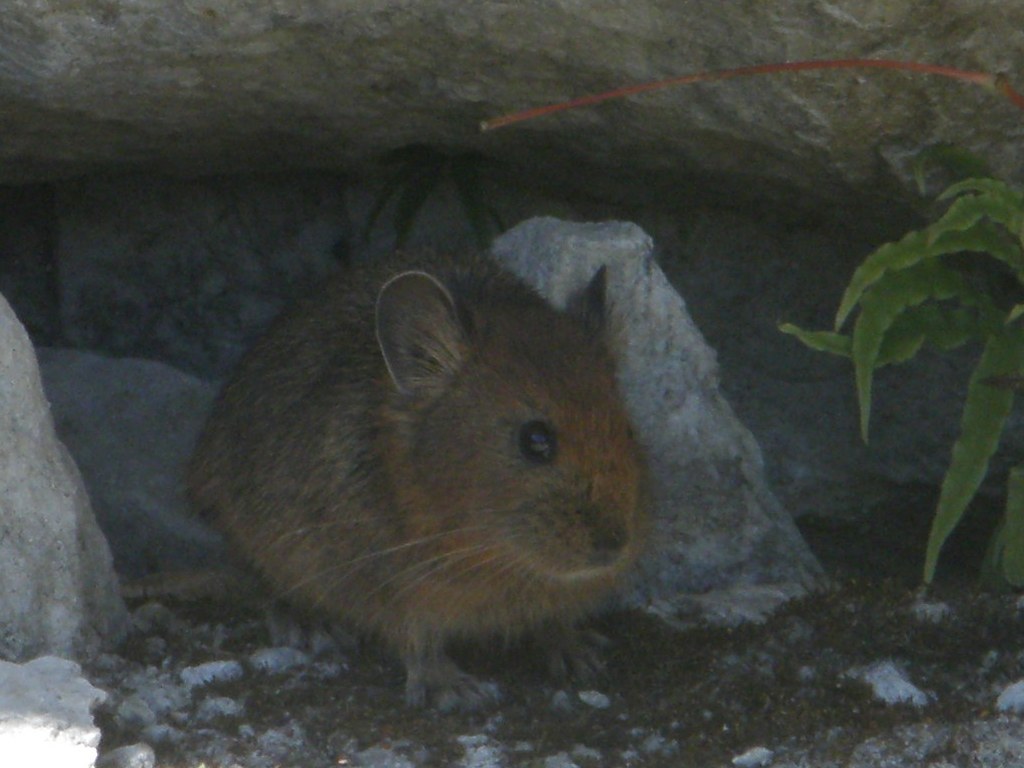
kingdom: Animalia
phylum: Chordata
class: Mammalia
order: Lagomorpha
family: Ochotonidae
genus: Ochotona
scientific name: Ochotona roylii
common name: Royle s pika
